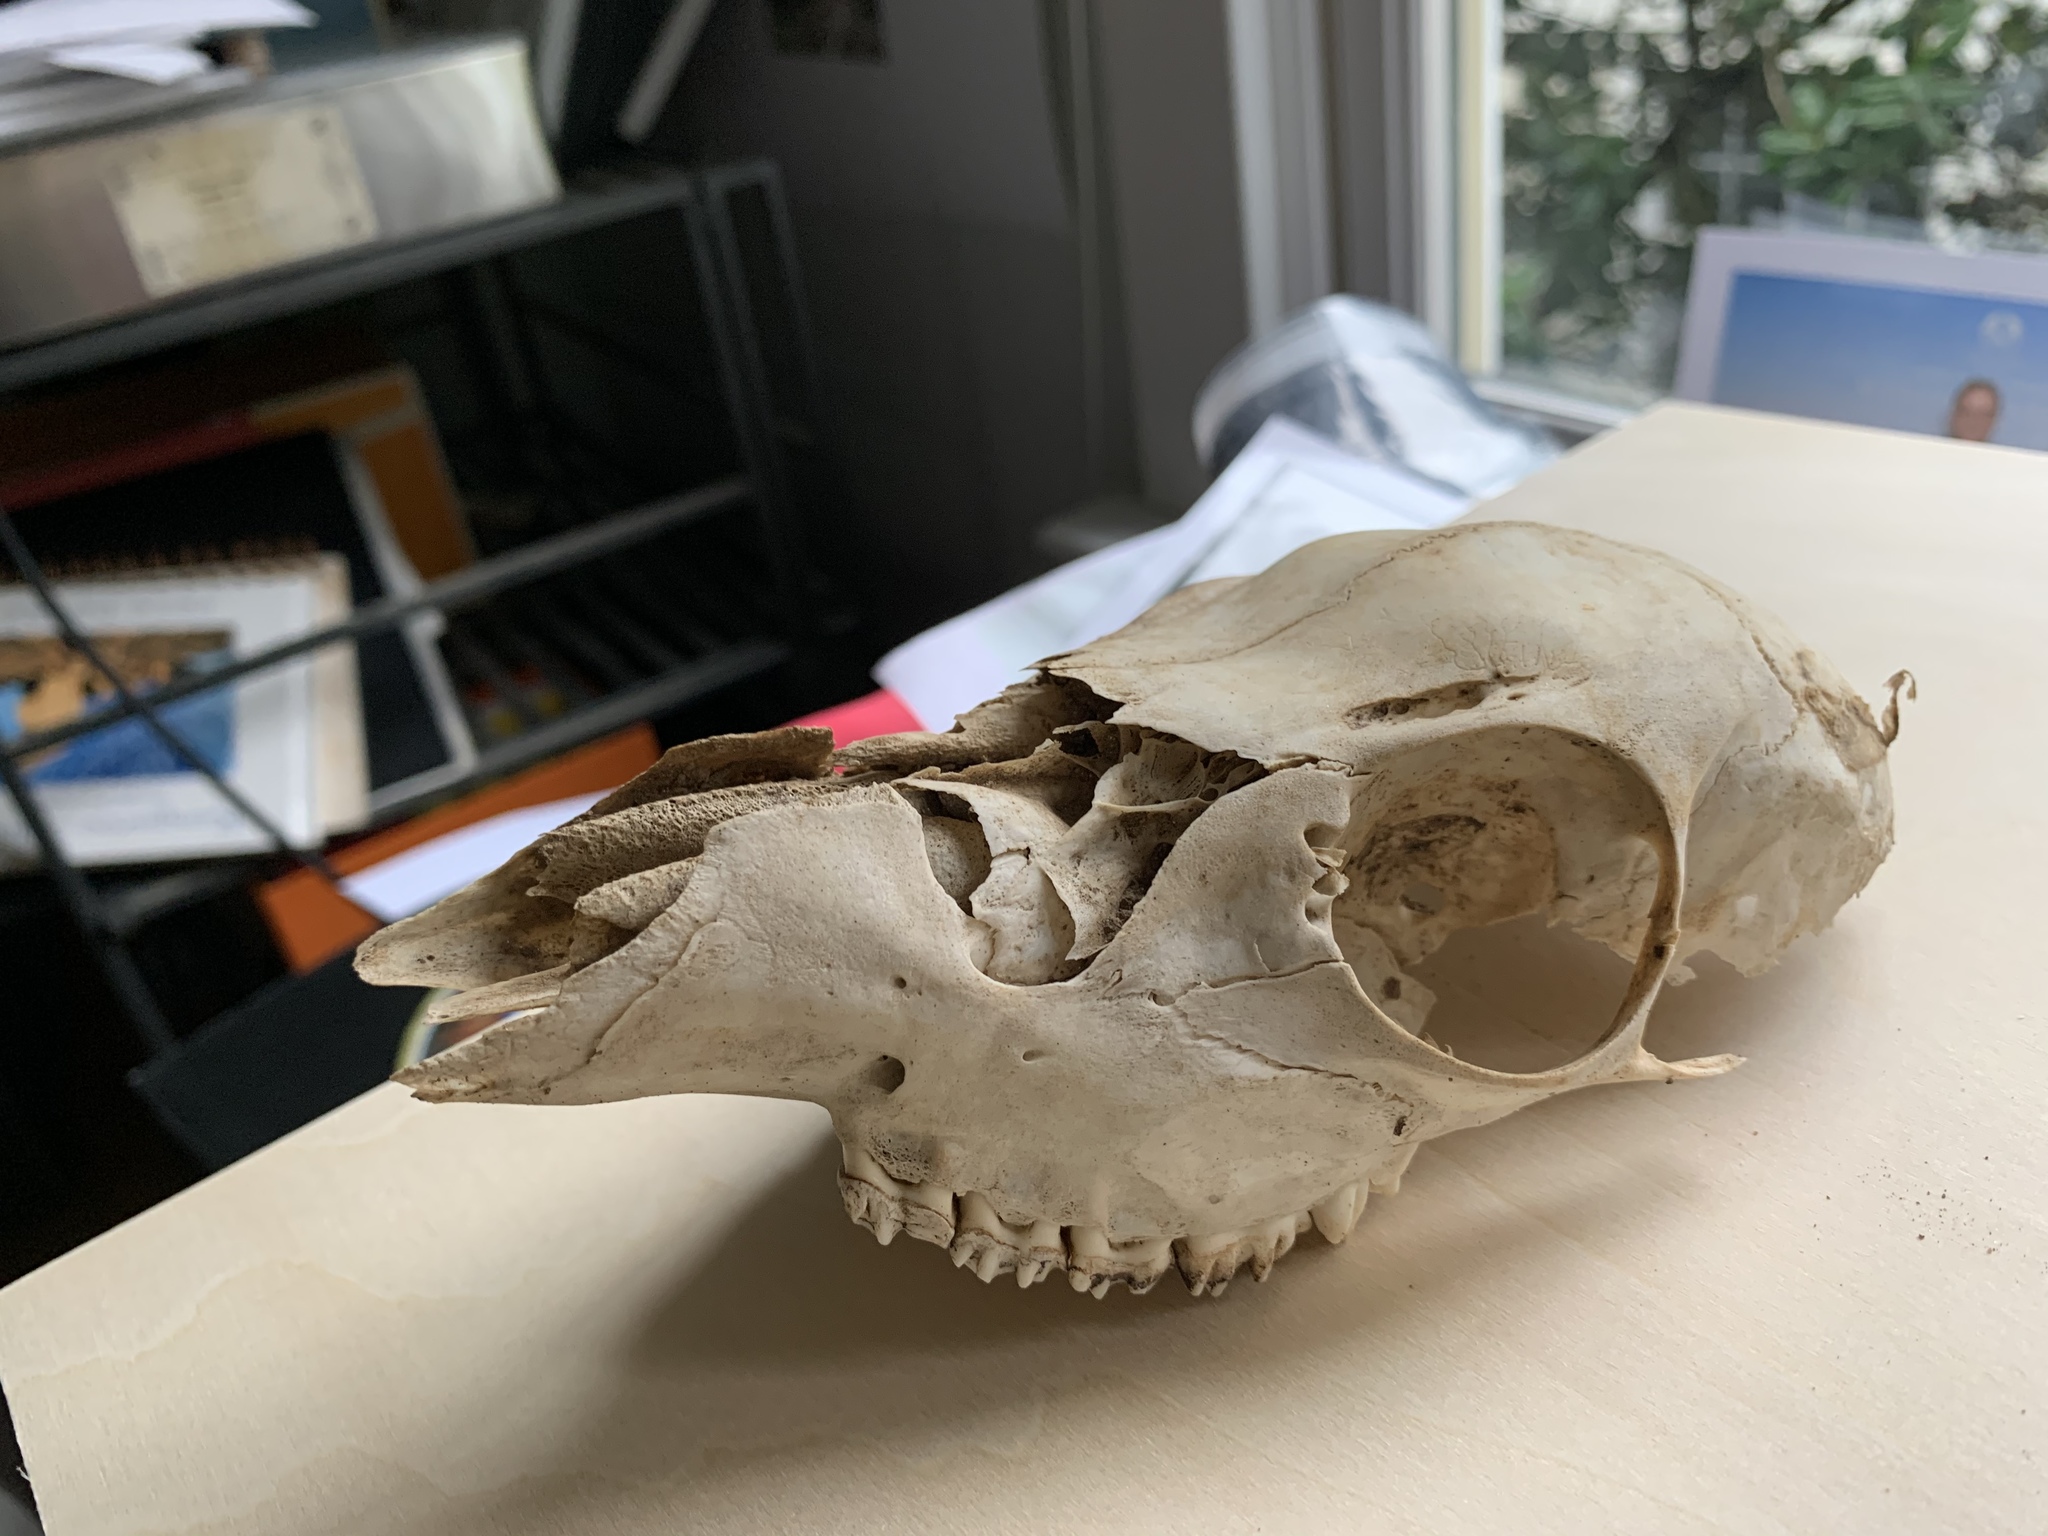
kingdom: Animalia
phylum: Chordata
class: Mammalia
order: Artiodactyla
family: Cervidae
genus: Odocoileus
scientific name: Odocoileus virginianus
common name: White-tailed deer
